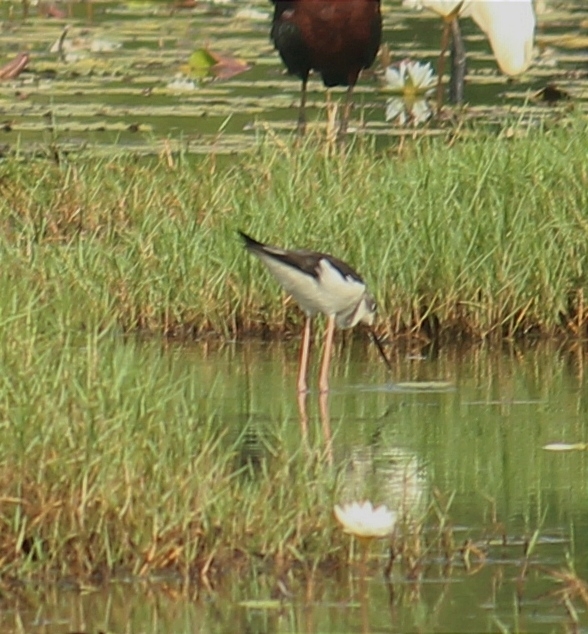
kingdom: Animalia
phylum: Chordata
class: Aves
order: Charadriiformes
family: Recurvirostridae
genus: Himantopus
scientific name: Himantopus himantopus
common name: Black-winged stilt
